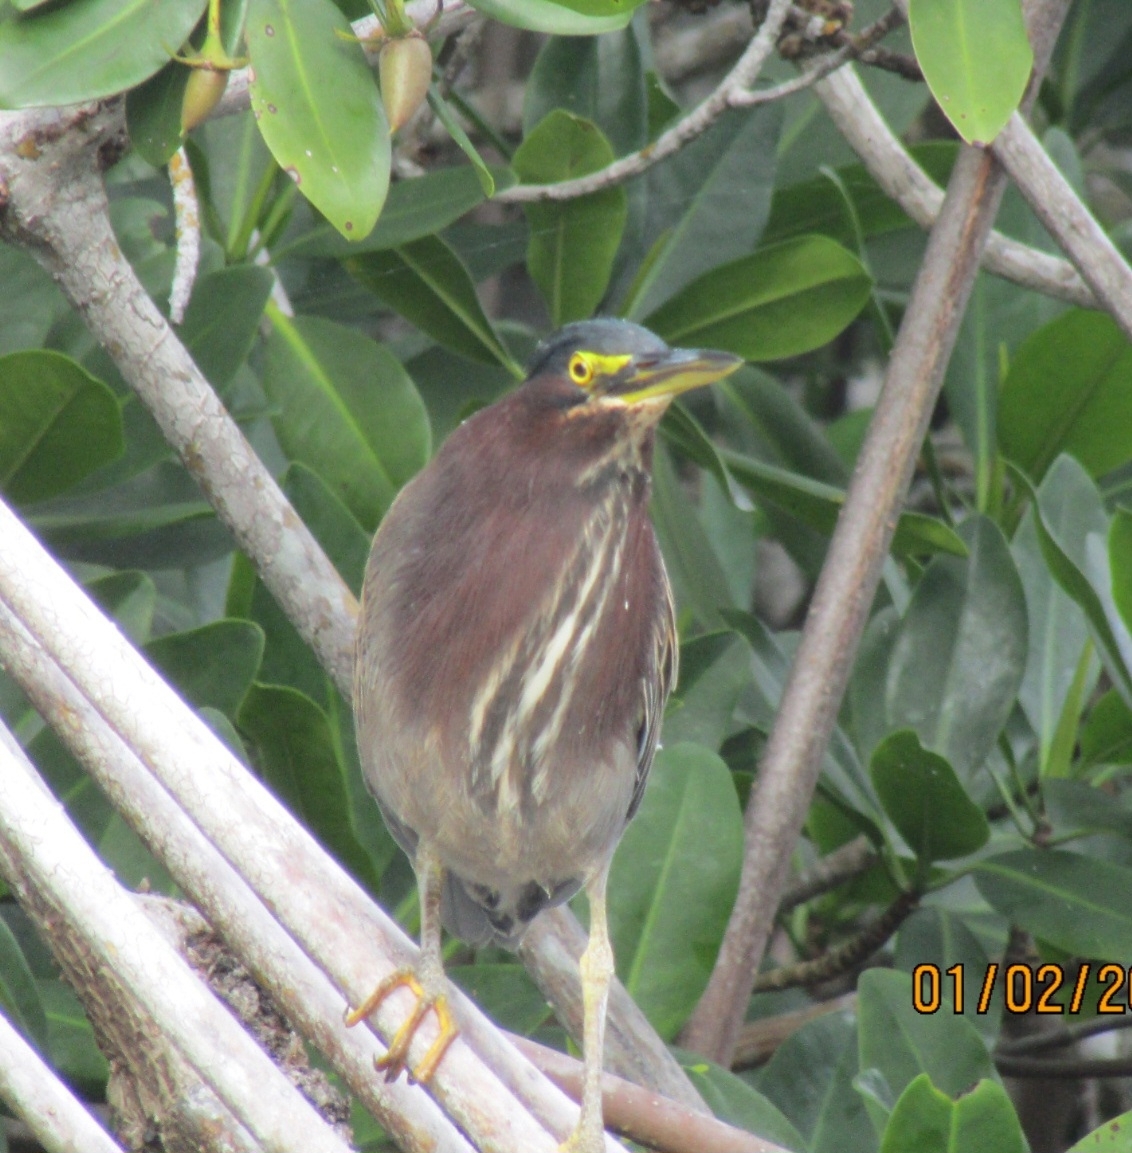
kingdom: Animalia
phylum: Chordata
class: Aves
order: Pelecaniformes
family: Ardeidae
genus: Butorides
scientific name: Butorides virescens
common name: Green heron
